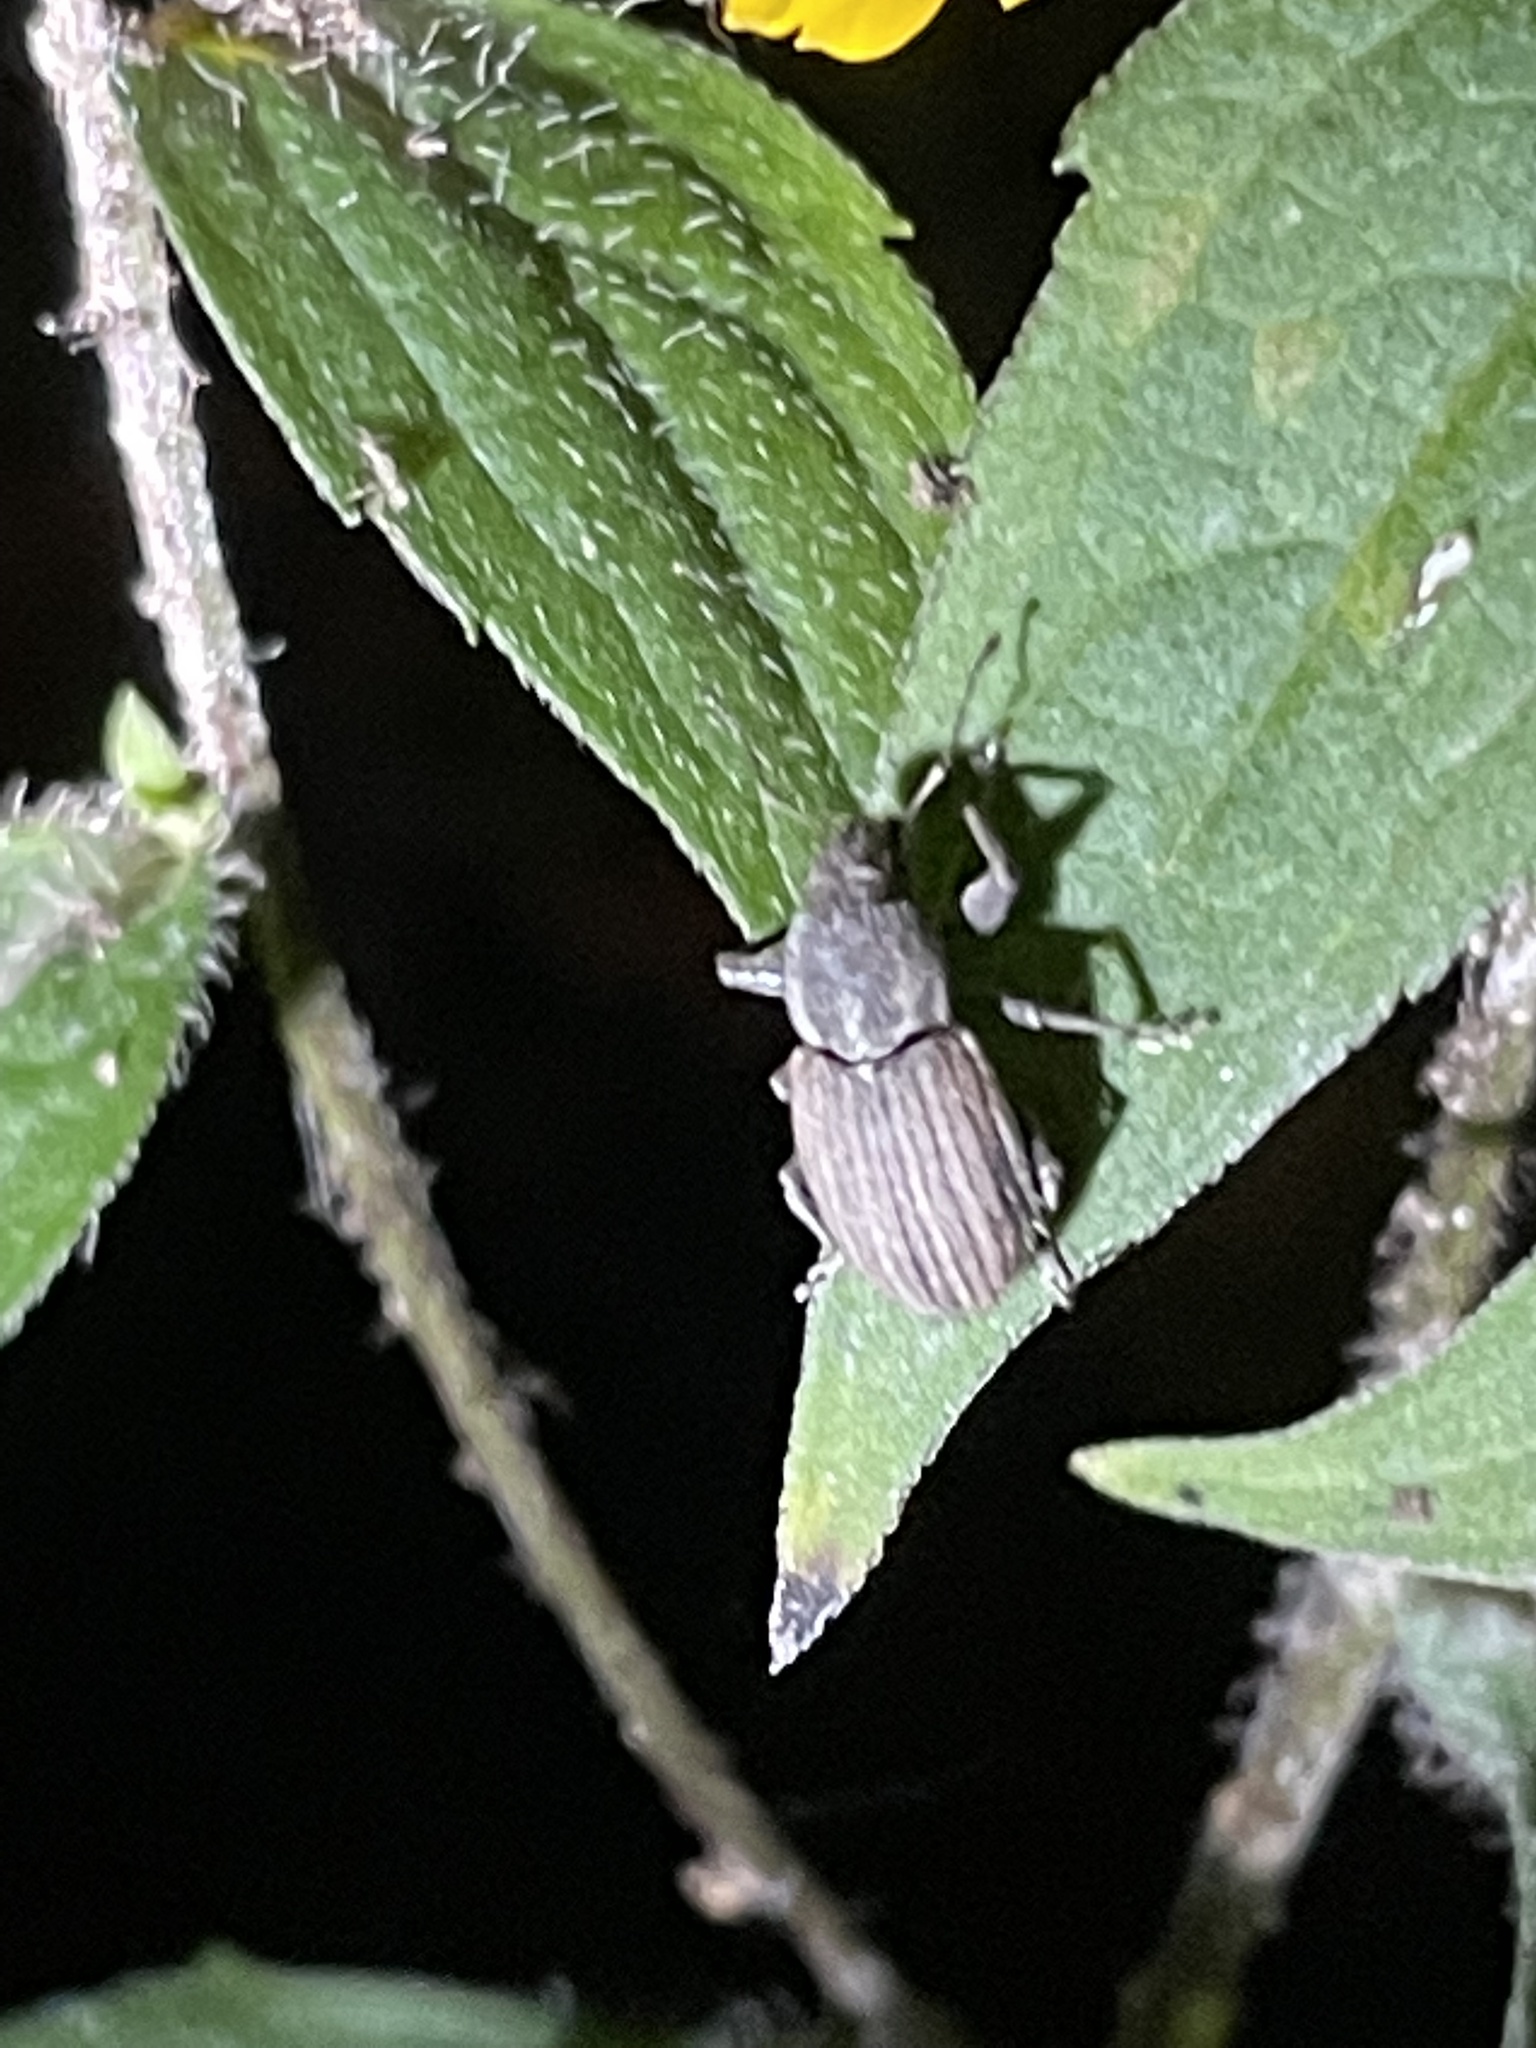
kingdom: Animalia
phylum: Arthropoda
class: Insecta
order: Coleoptera
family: Curculionidae
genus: Naupactus
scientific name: Naupactus leucoloma
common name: Whitefringed beetle
